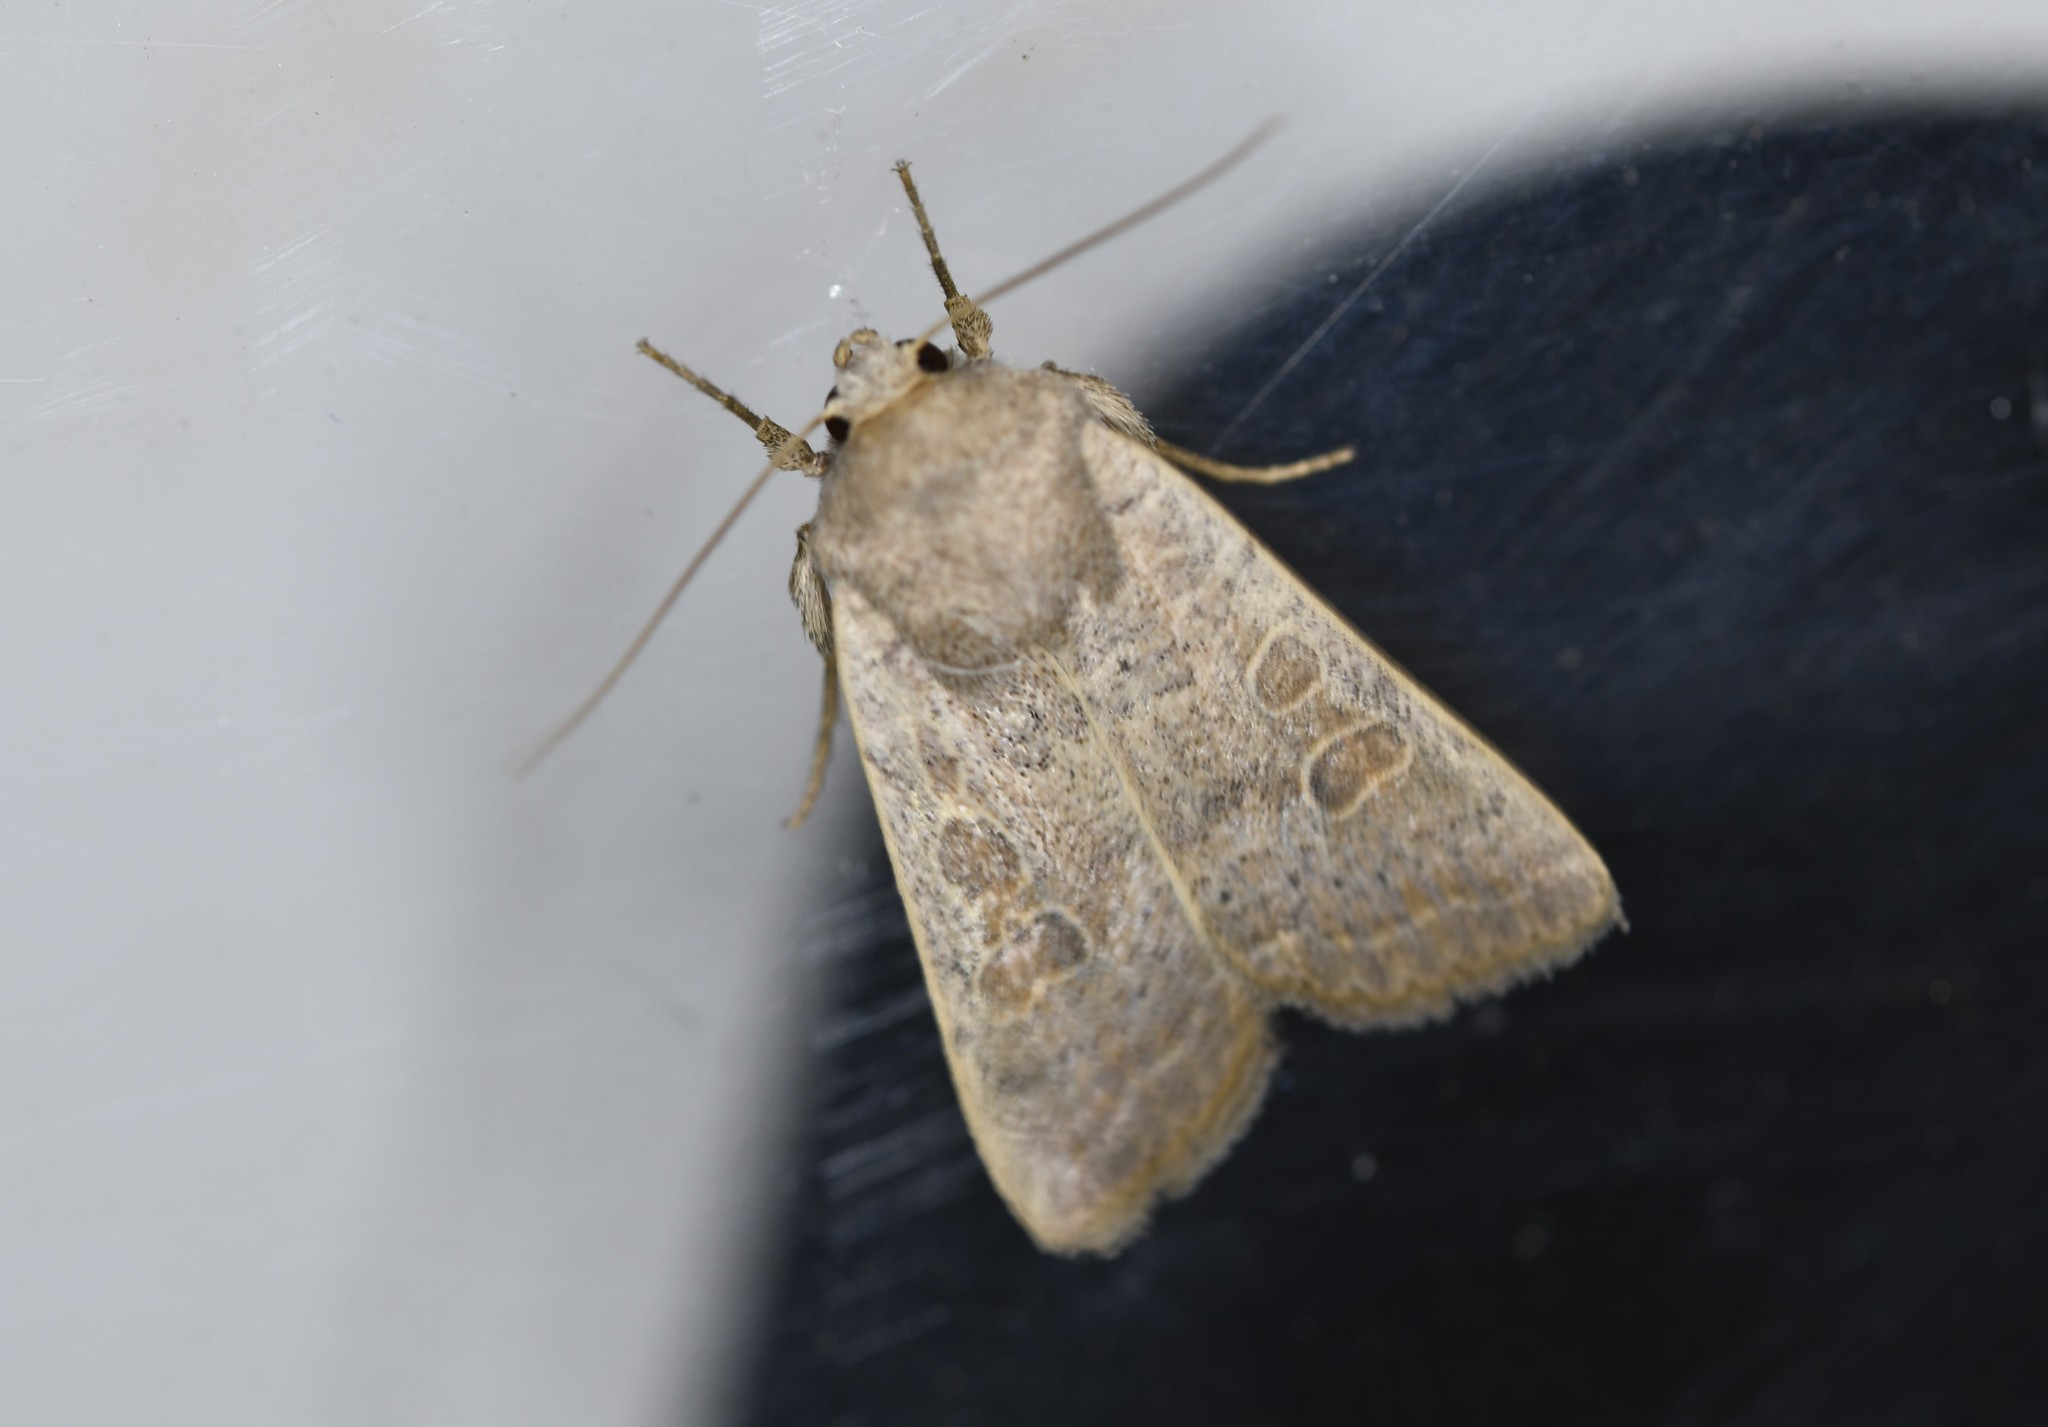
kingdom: Animalia
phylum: Arthropoda
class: Insecta
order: Lepidoptera
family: Noctuidae
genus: Hoplodrina
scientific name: Hoplodrina ambigua
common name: Vine's rustic
